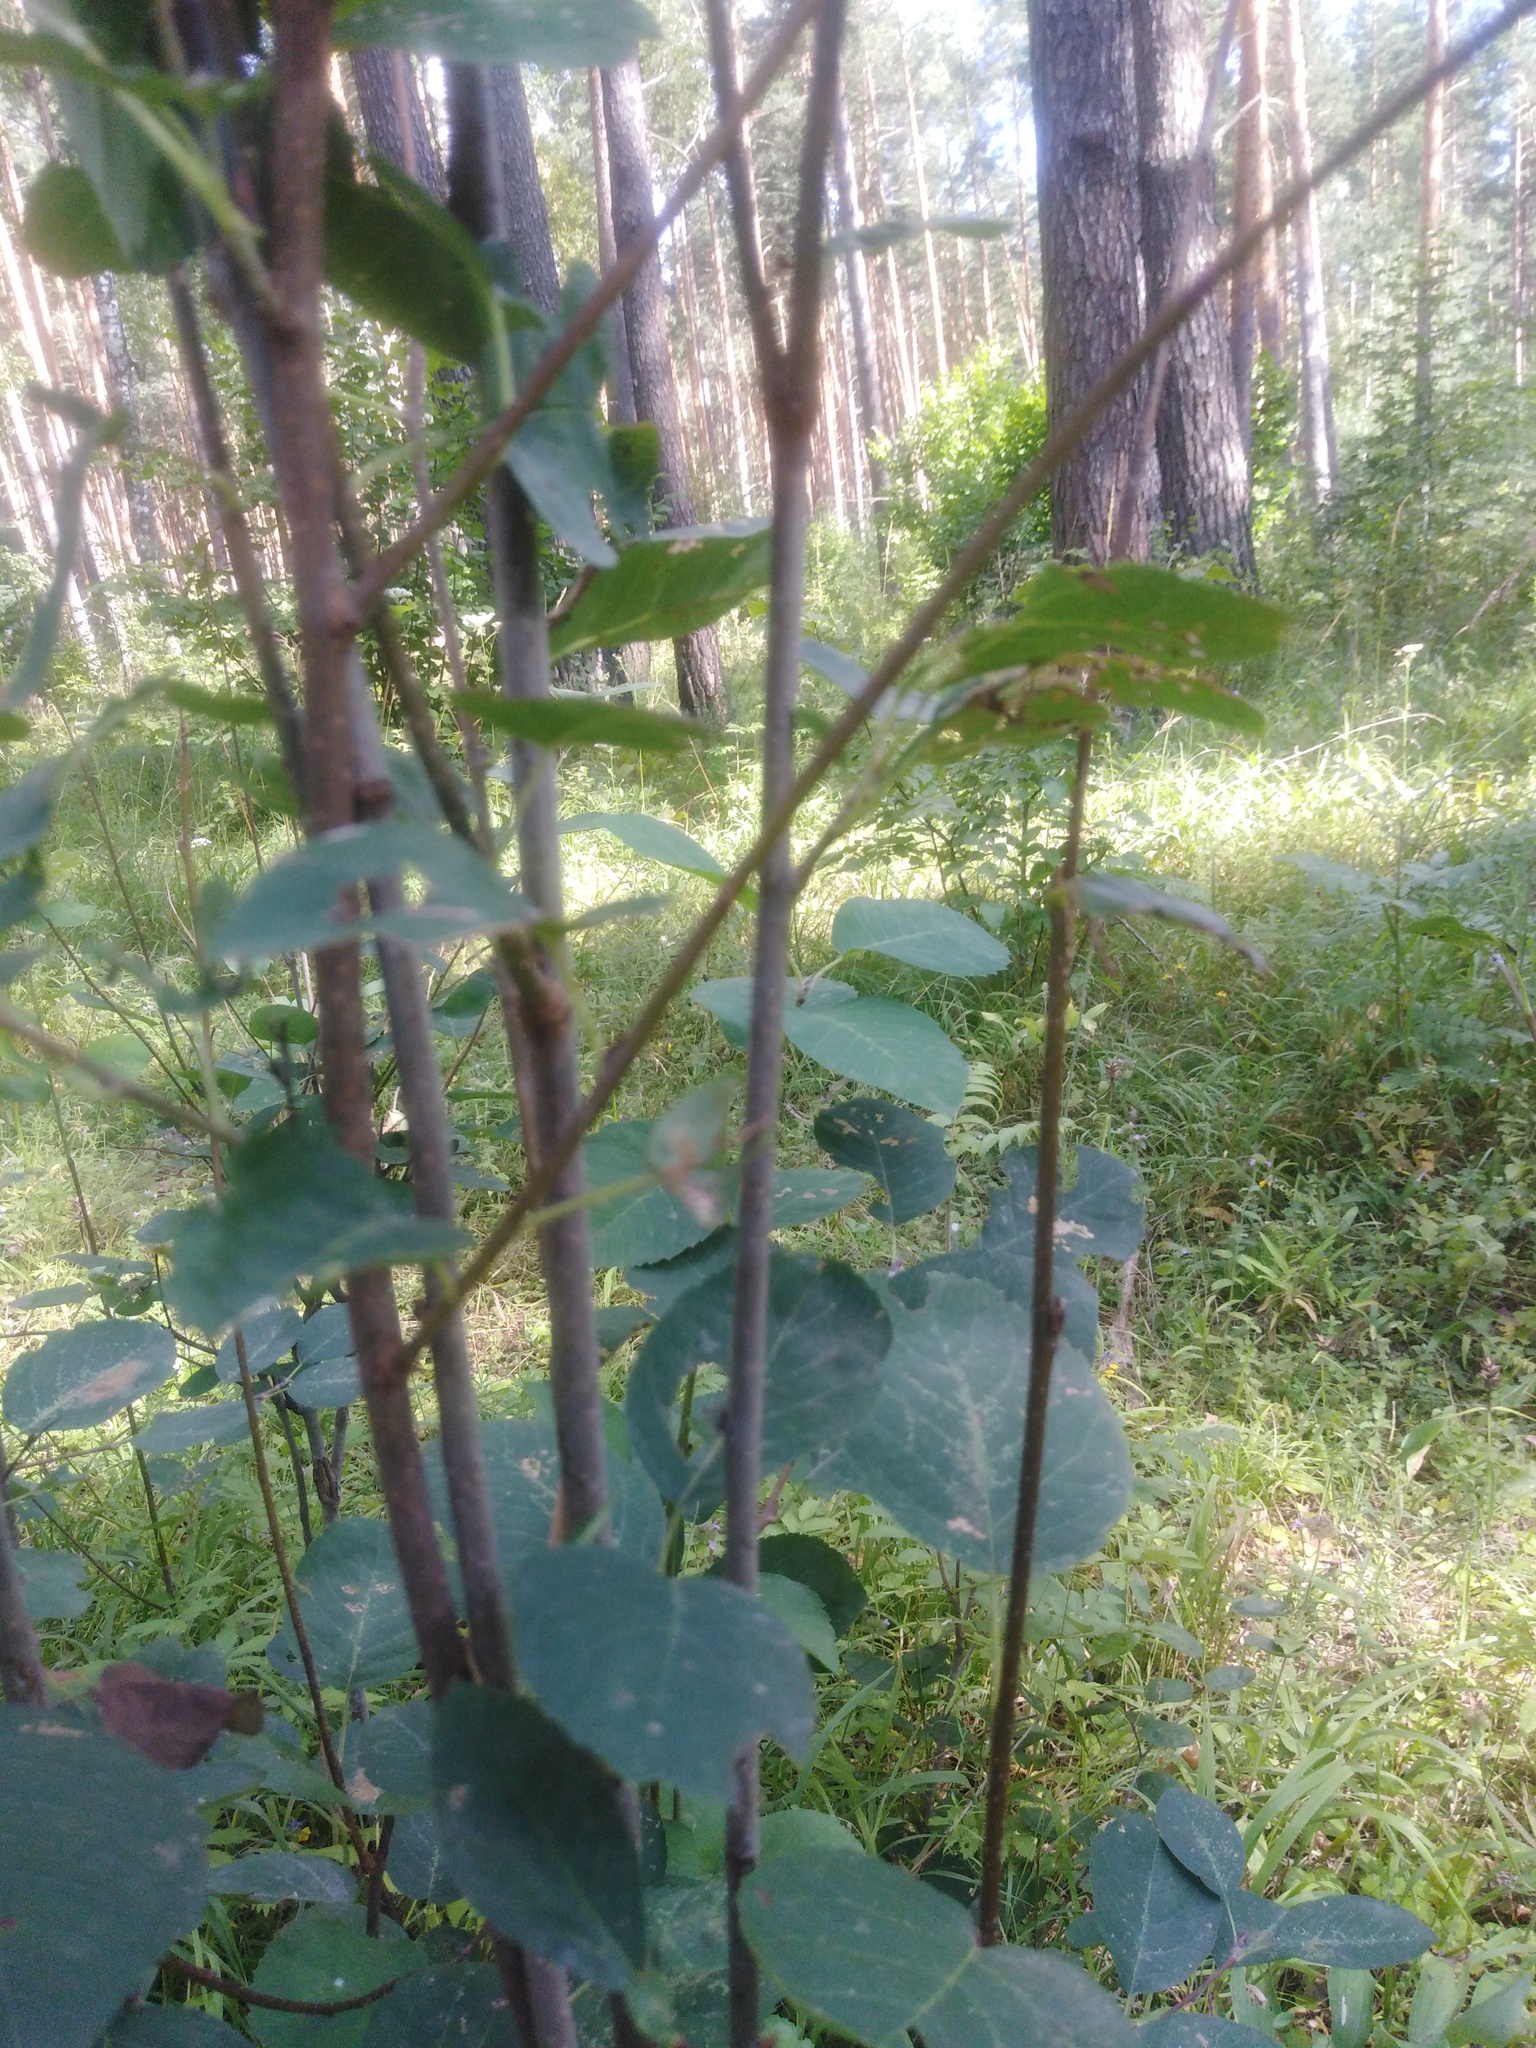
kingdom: Plantae
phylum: Tracheophyta
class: Magnoliopsida
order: Rosales
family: Rosaceae
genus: Amelanchier
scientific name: Amelanchier
